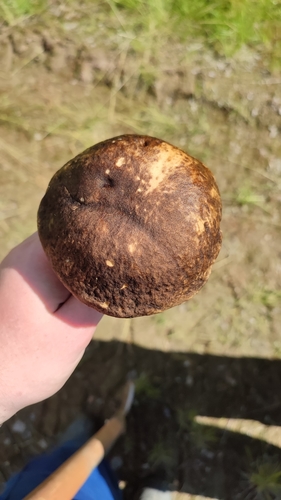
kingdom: Fungi
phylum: Basidiomycota
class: Agaricomycetes
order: Boletales
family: Boletaceae
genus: Leccinum
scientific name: Leccinum scabrum
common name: Blushing bolete
